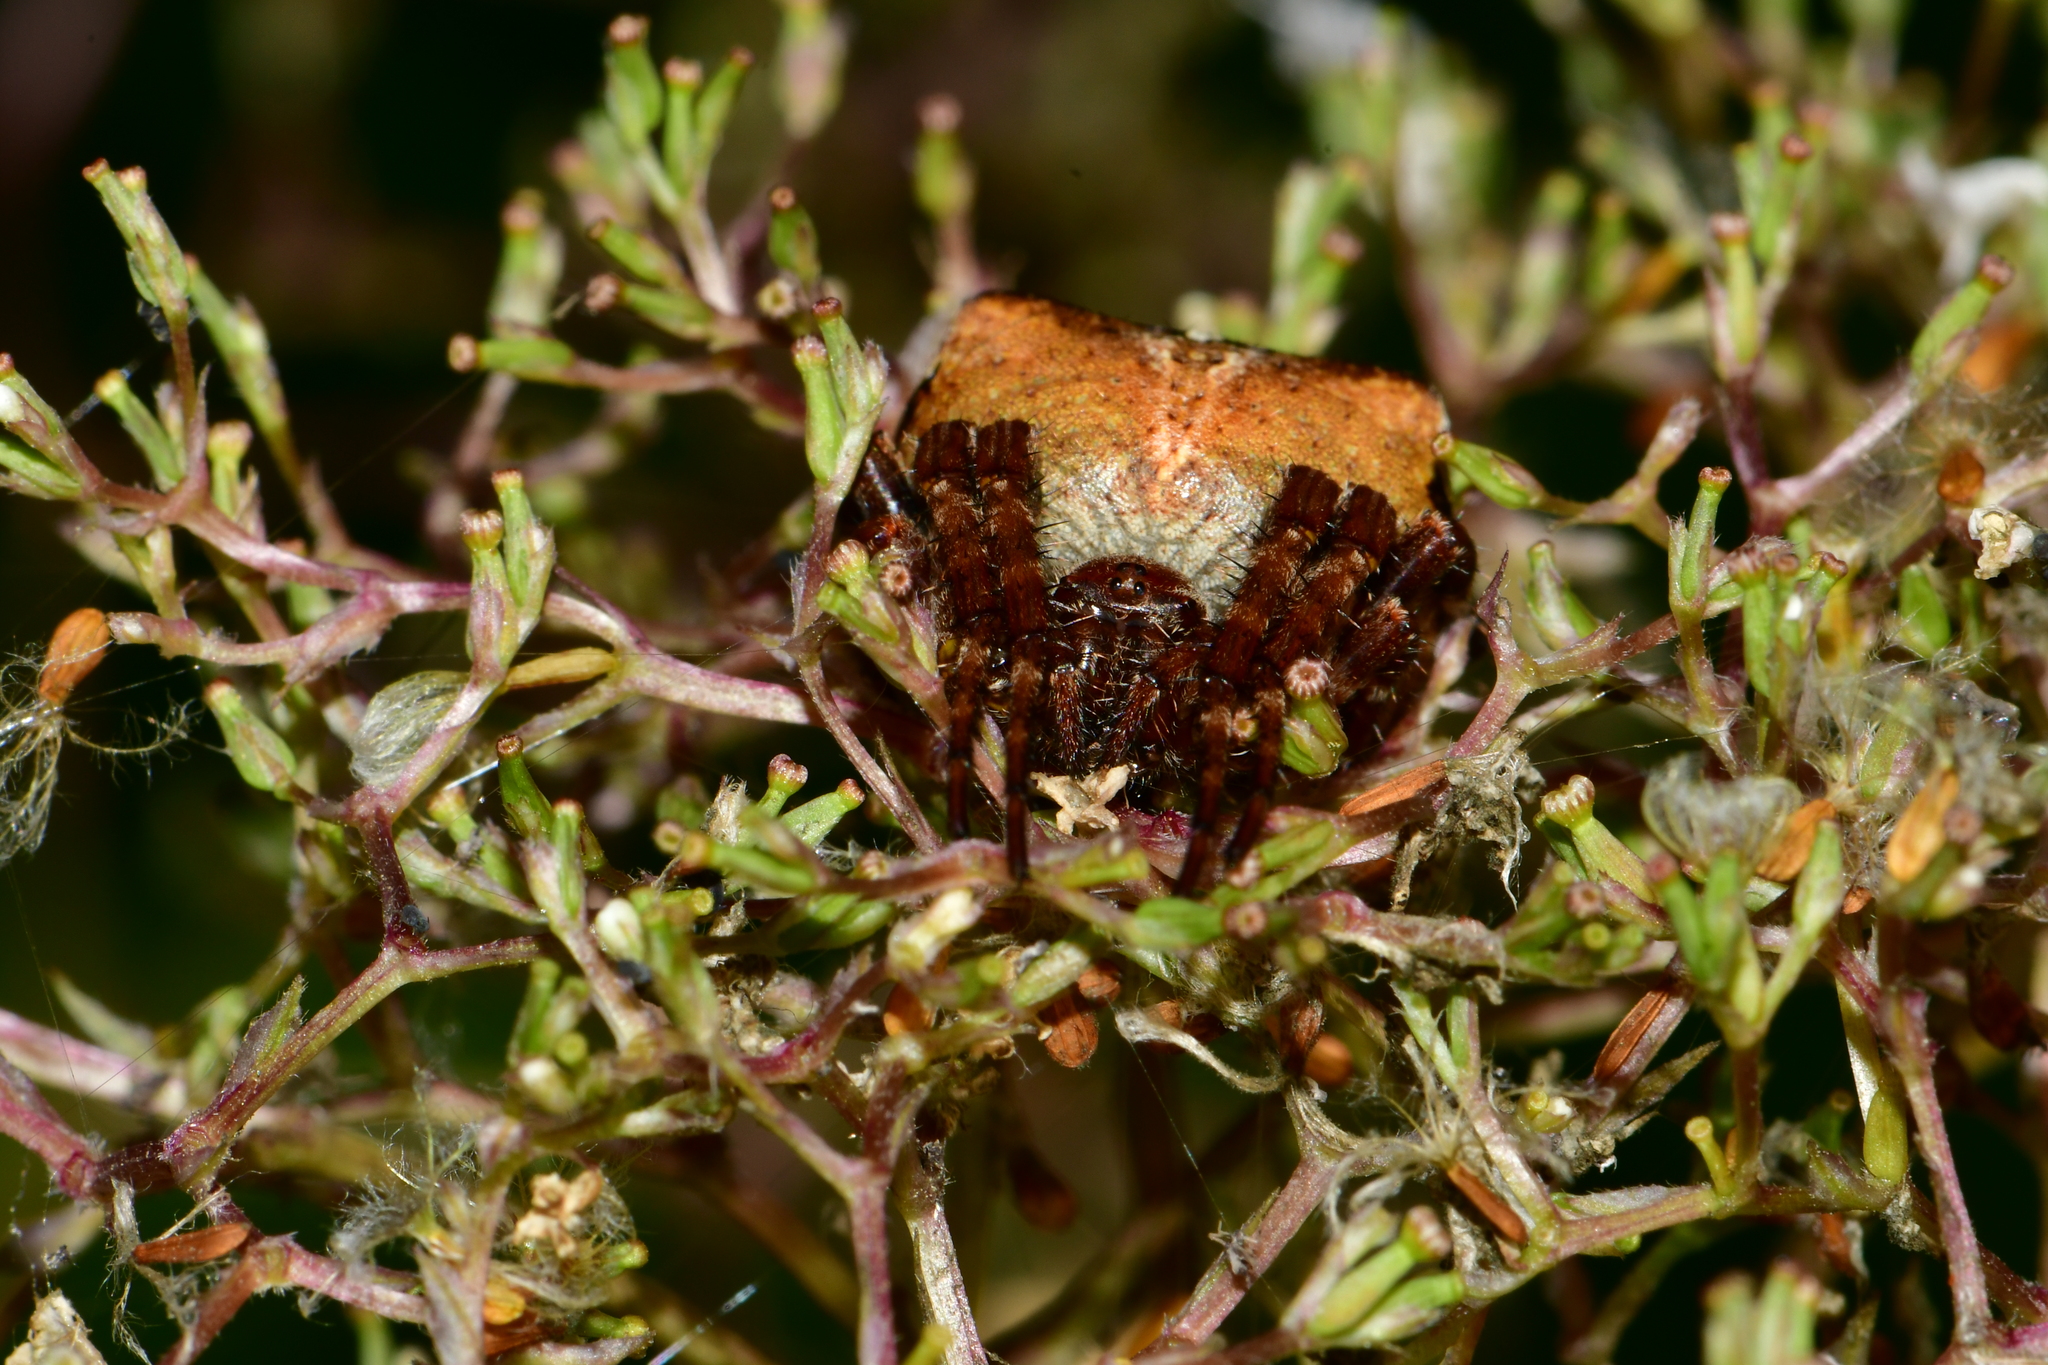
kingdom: Animalia
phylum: Arthropoda
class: Arachnida
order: Araneae
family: Araneidae
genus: Araneus
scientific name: Araneus angulatus
